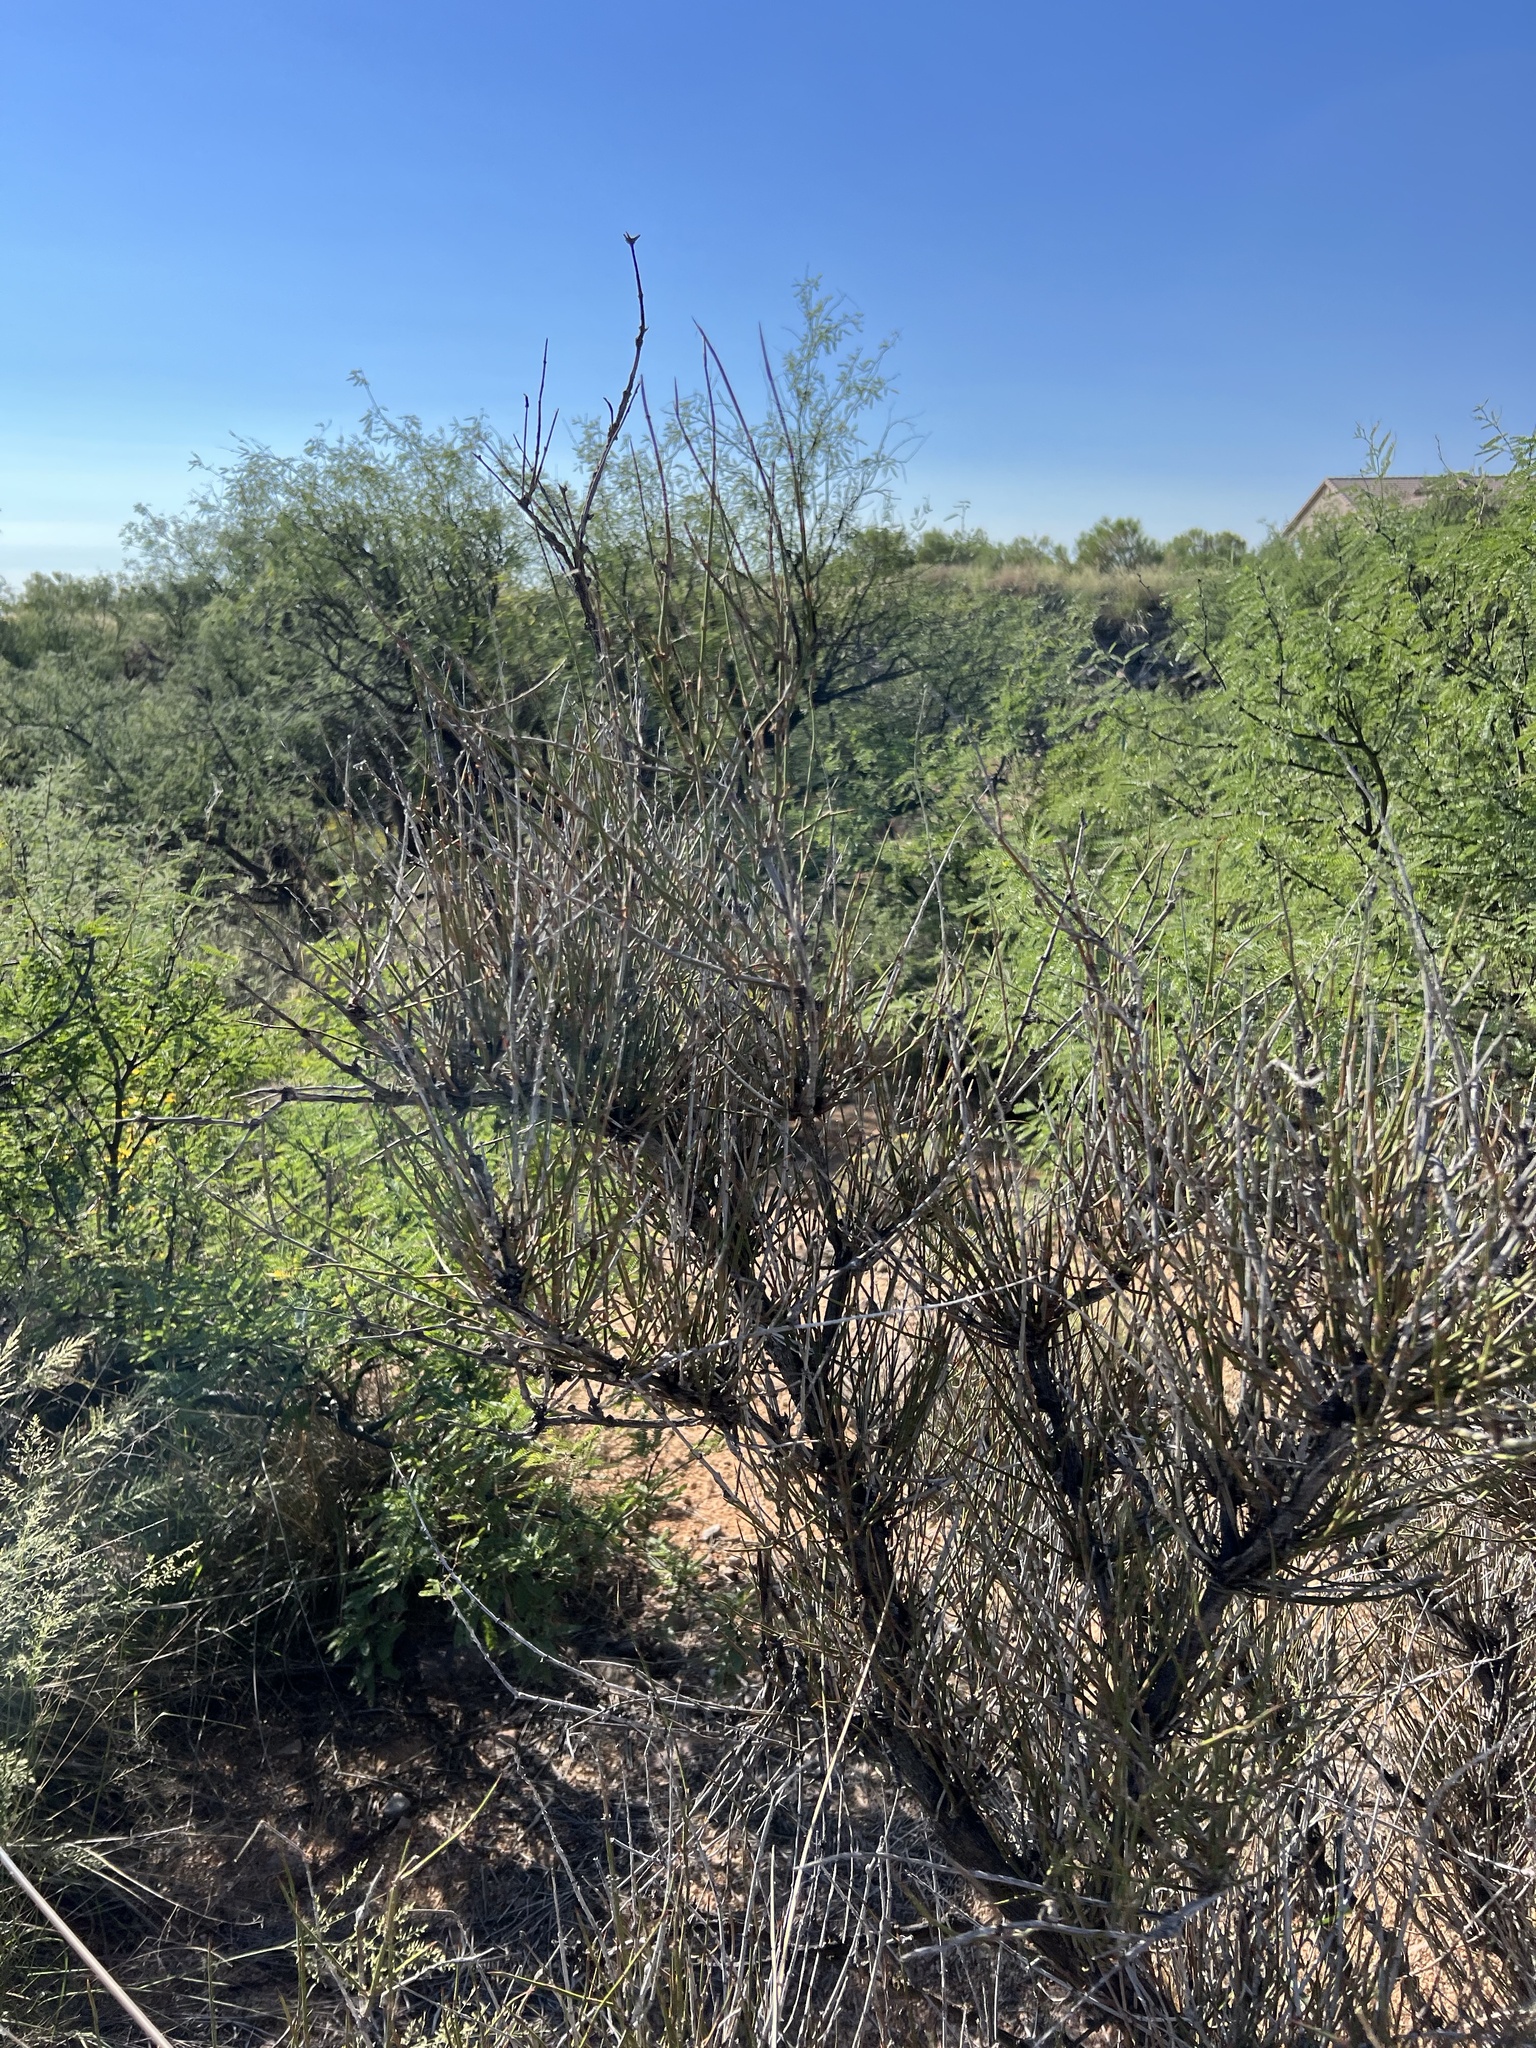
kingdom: Plantae
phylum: Tracheophyta
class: Gnetopsida
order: Ephedrales
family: Ephedraceae
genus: Ephedra
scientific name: Ephedra trifurca
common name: Mexican-tea
